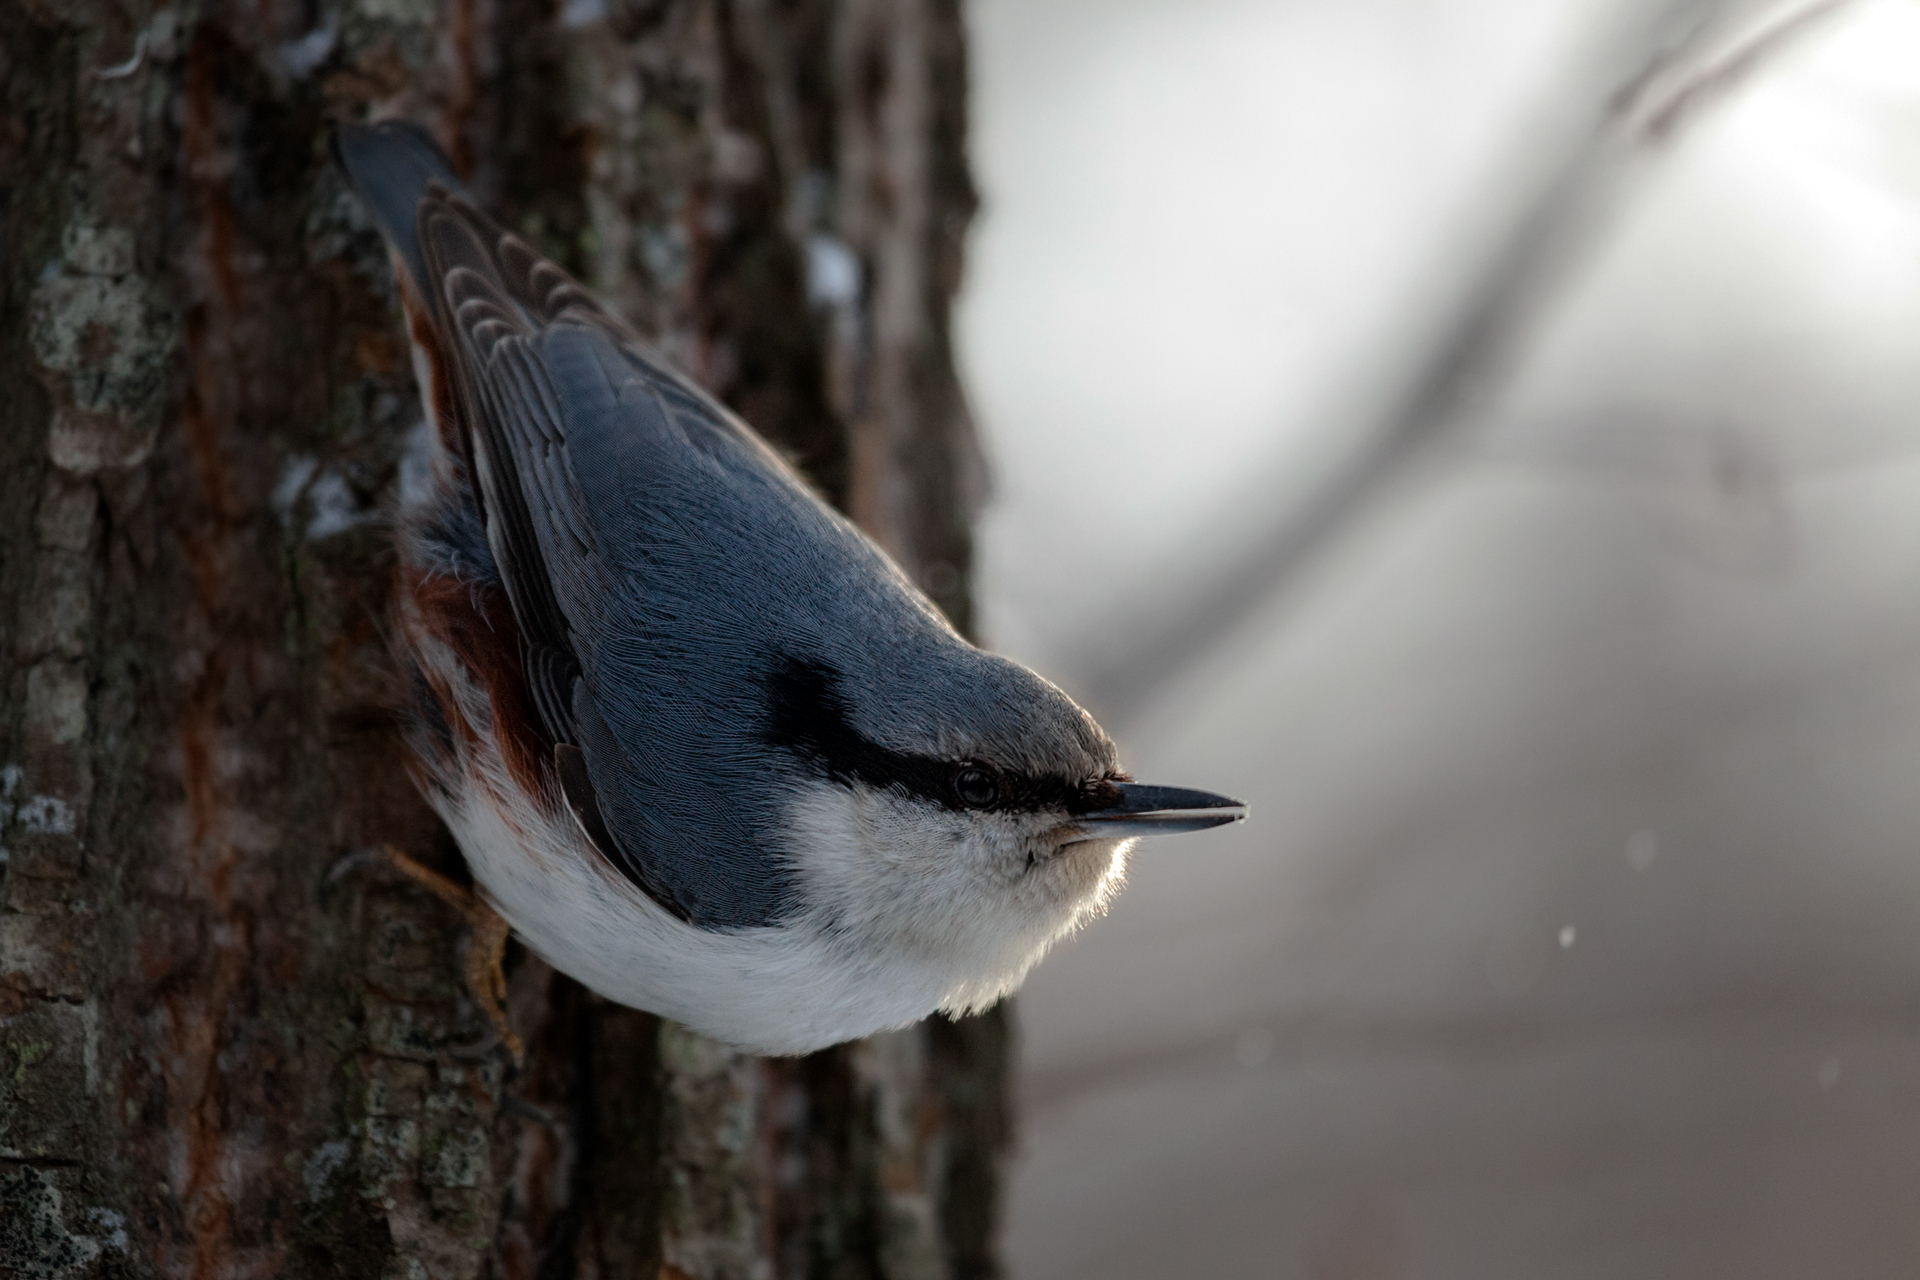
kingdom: Animalia
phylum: Chordata
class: Aves
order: Passeriformes
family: Sittidae
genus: Sitta
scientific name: Sitta europaea
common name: Eurasian nuthatch
